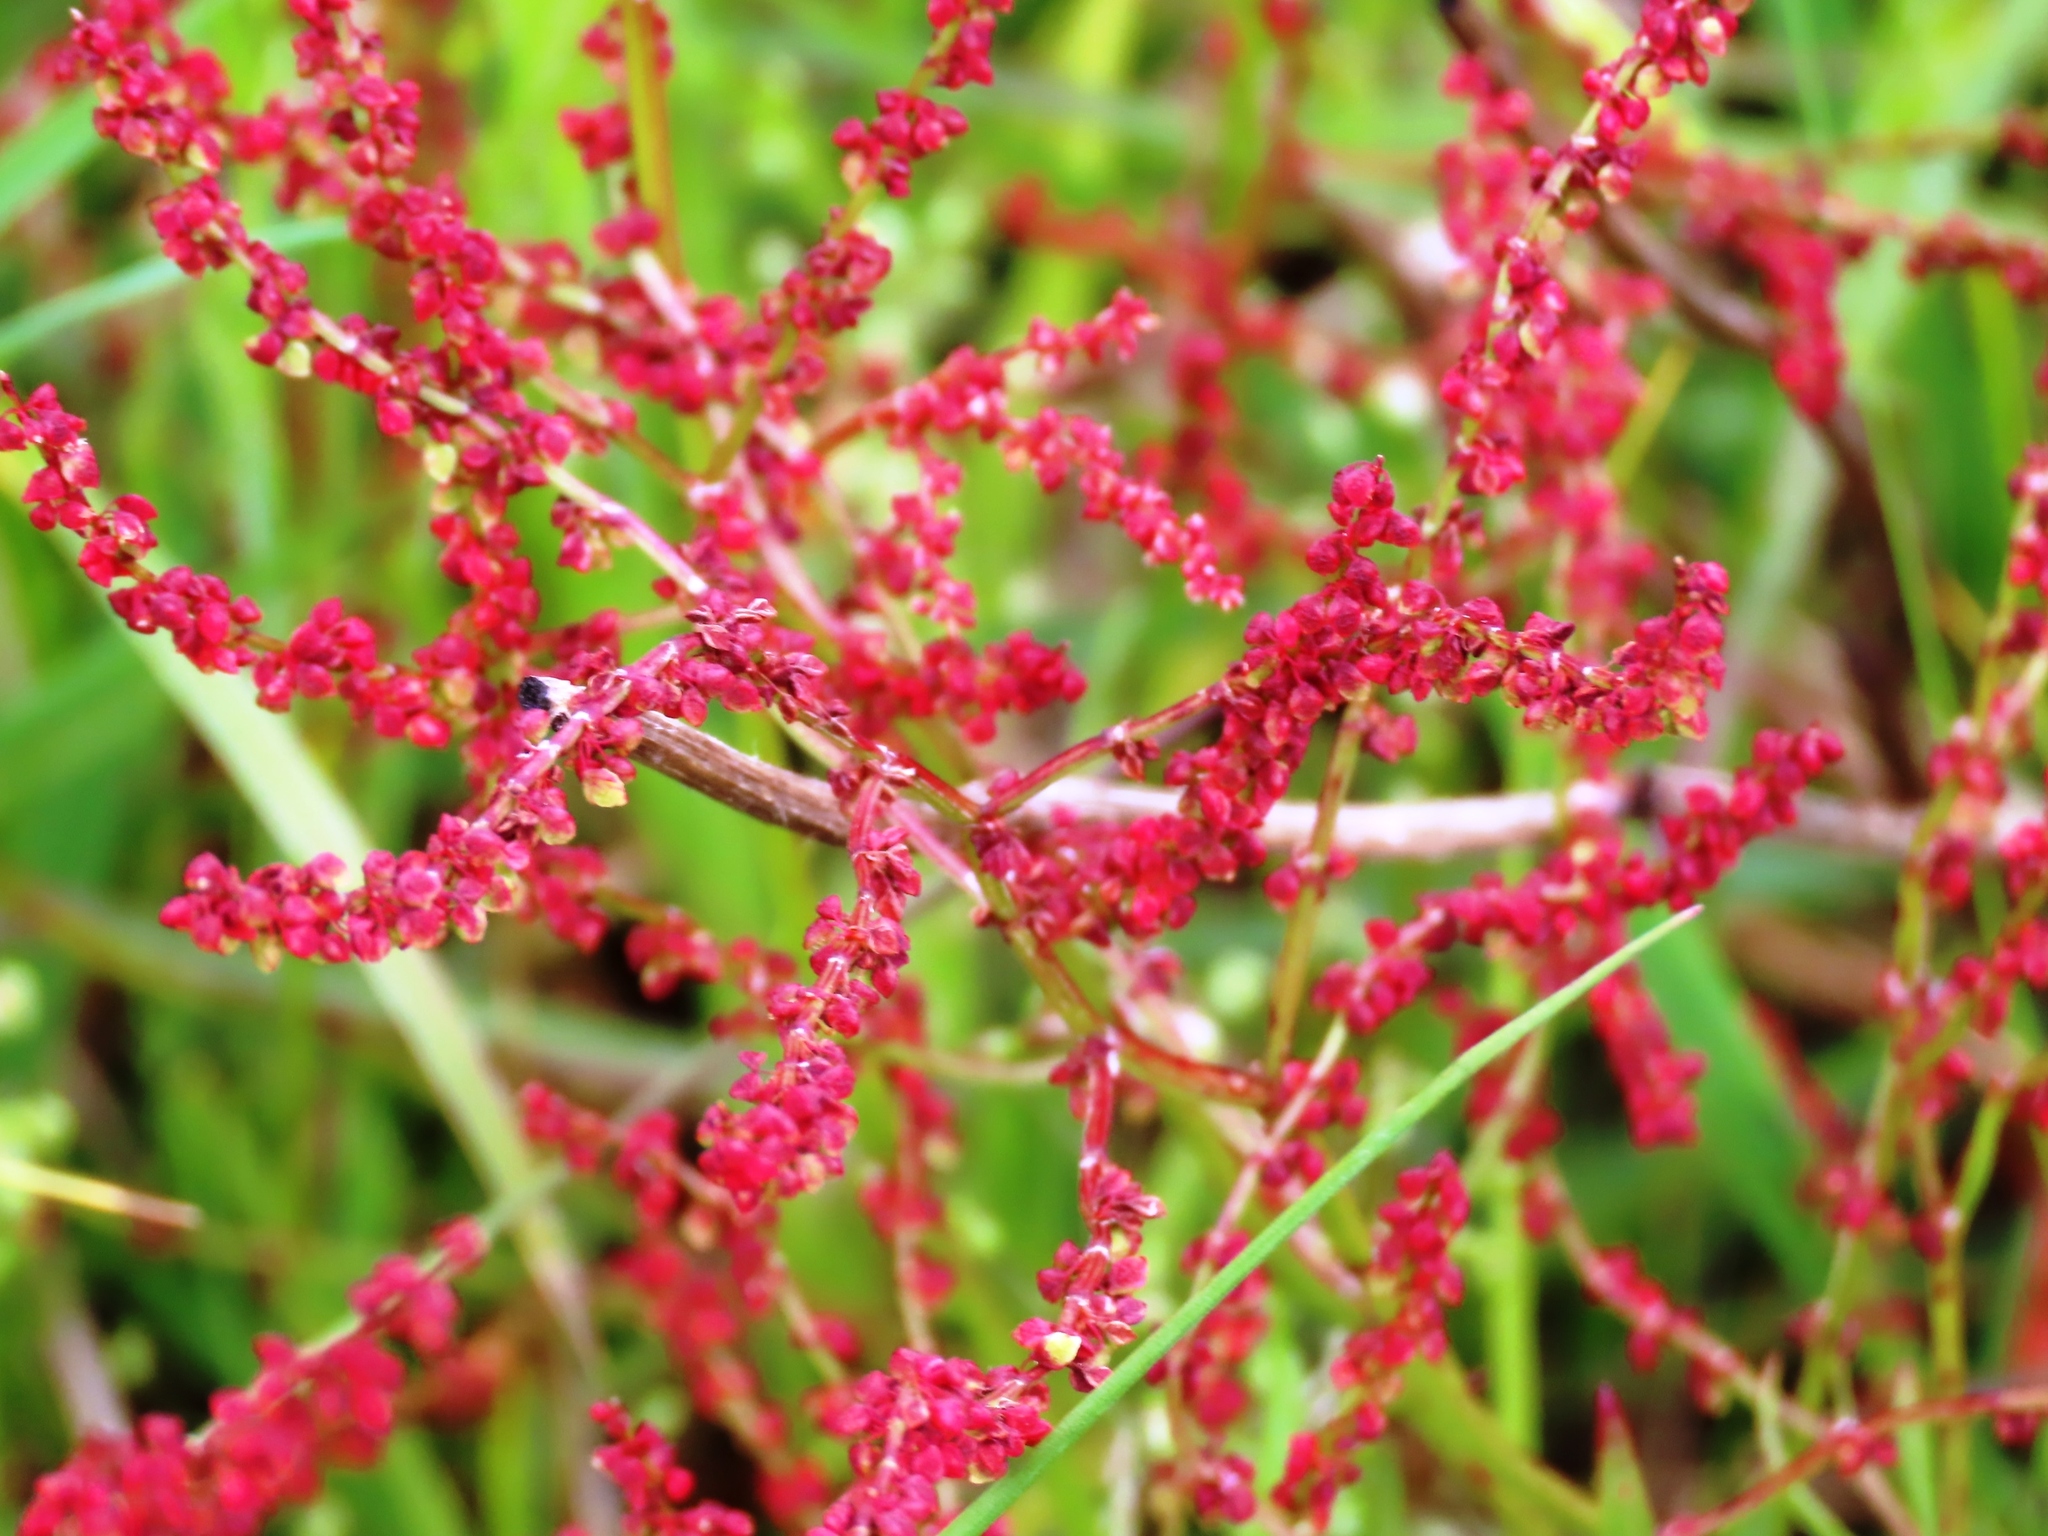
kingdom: Plantae
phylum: Tracheophyta
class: Magnoliopsida
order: Caryophyllales
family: Polygonaceae
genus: Rumex
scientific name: Rumex acetosella
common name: Common sheep sorrel
